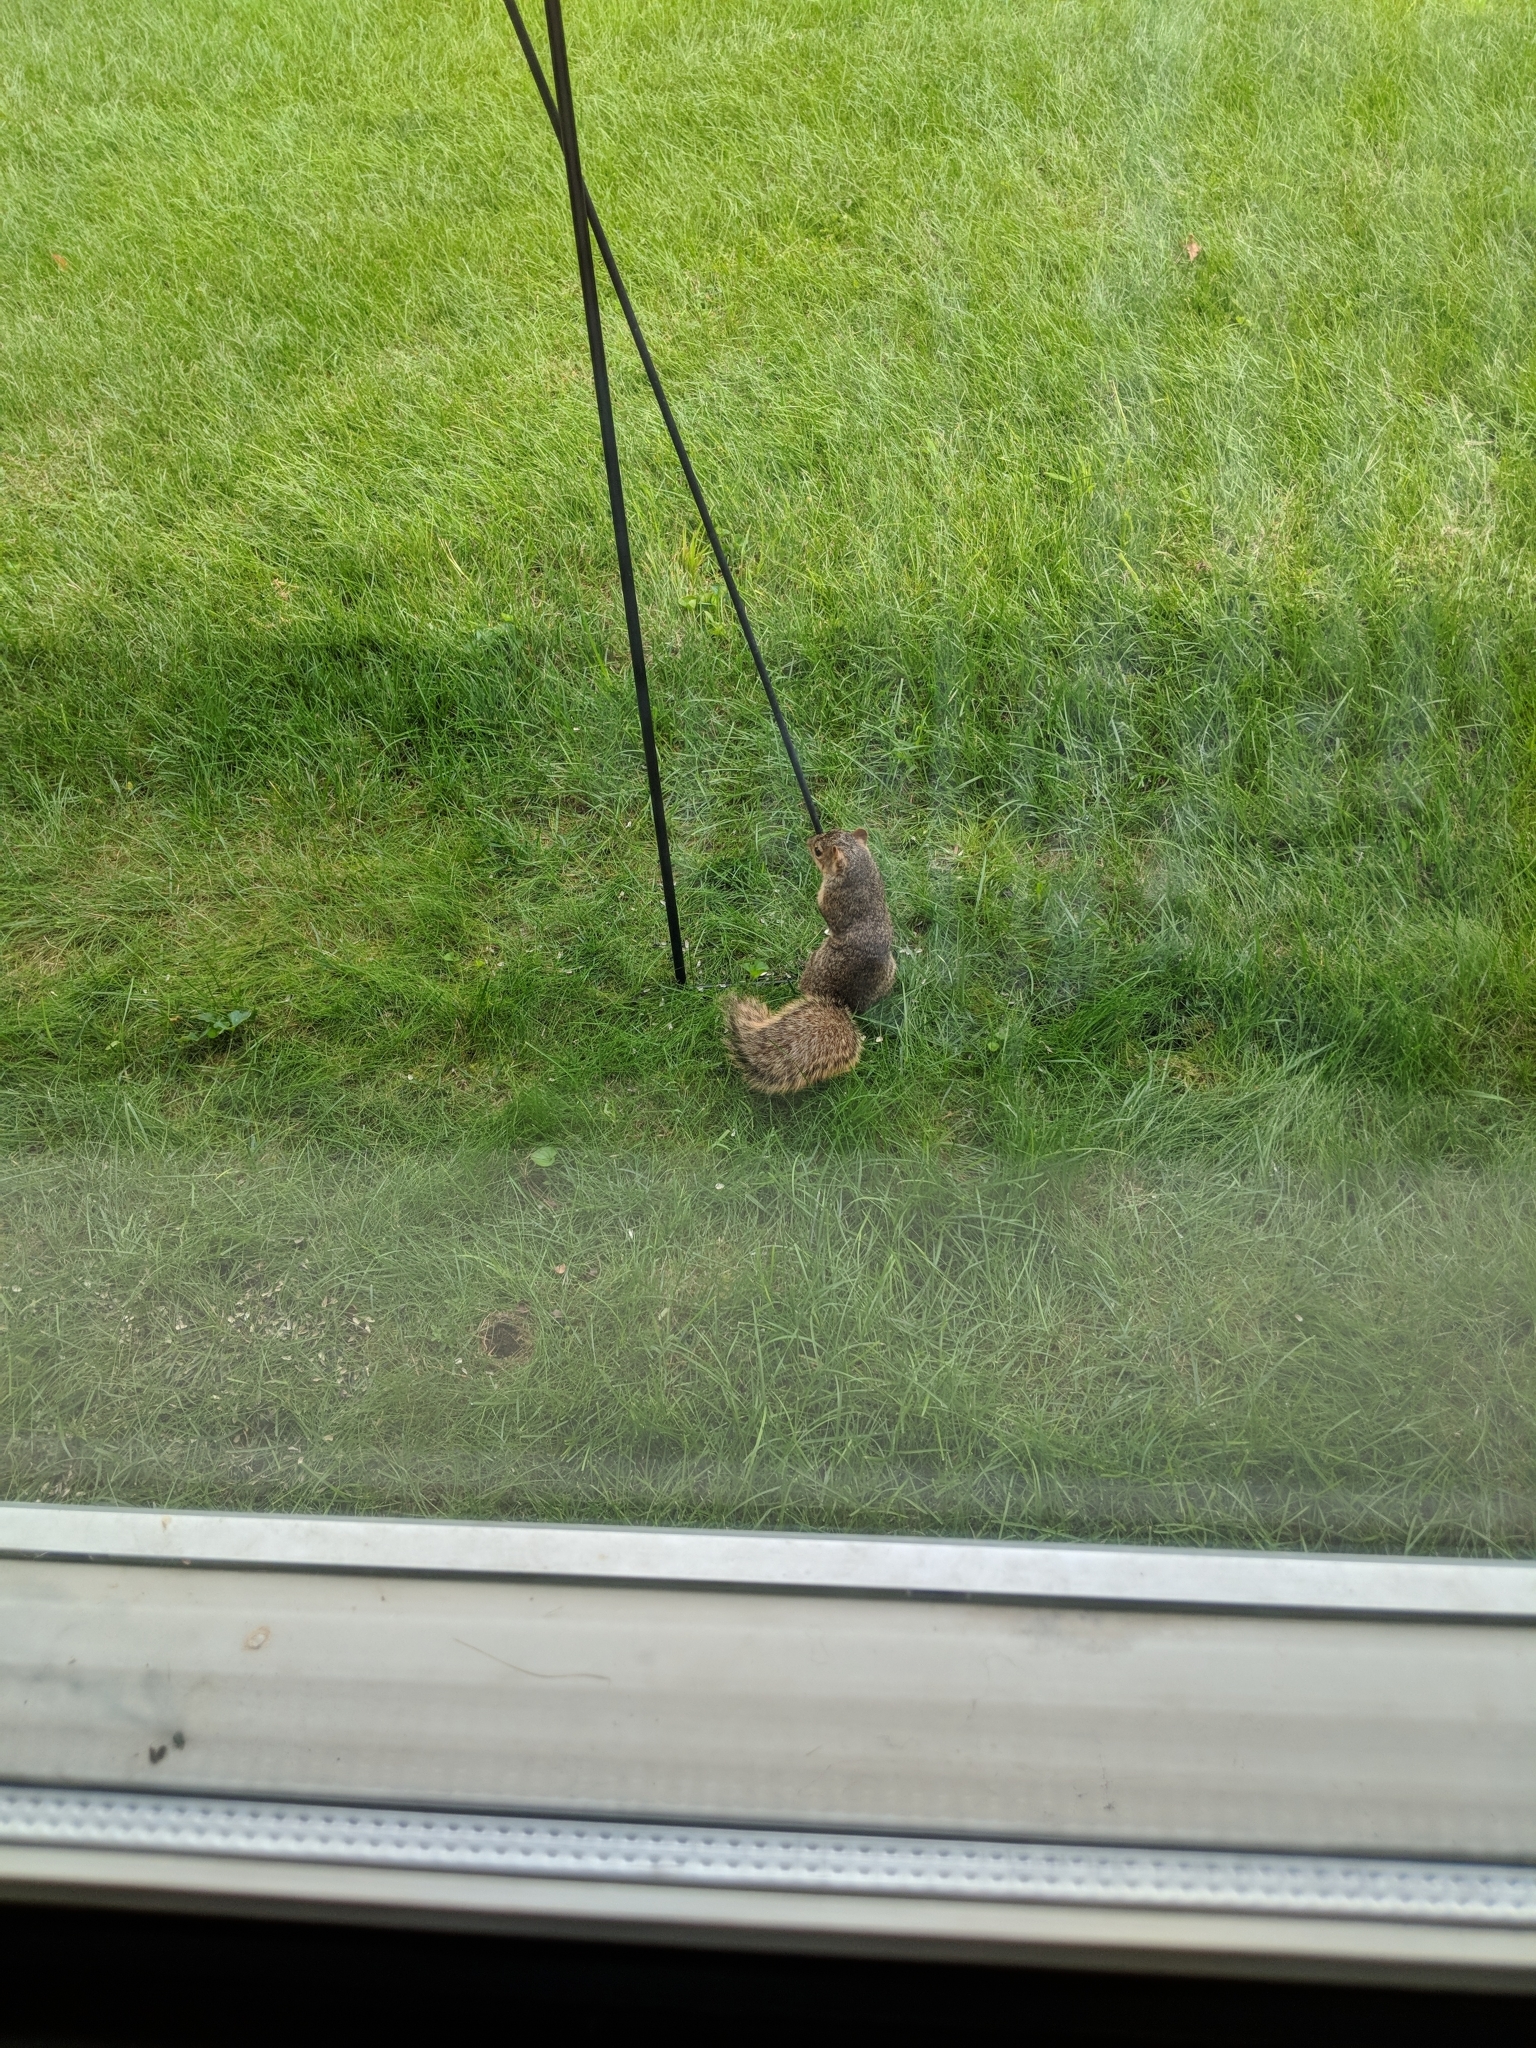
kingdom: Animalia
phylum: Chordata
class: Mammalia
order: Rodentia
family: Sciuridae
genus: Sciurus
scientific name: Sciurus niger
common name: Fox squirrel
